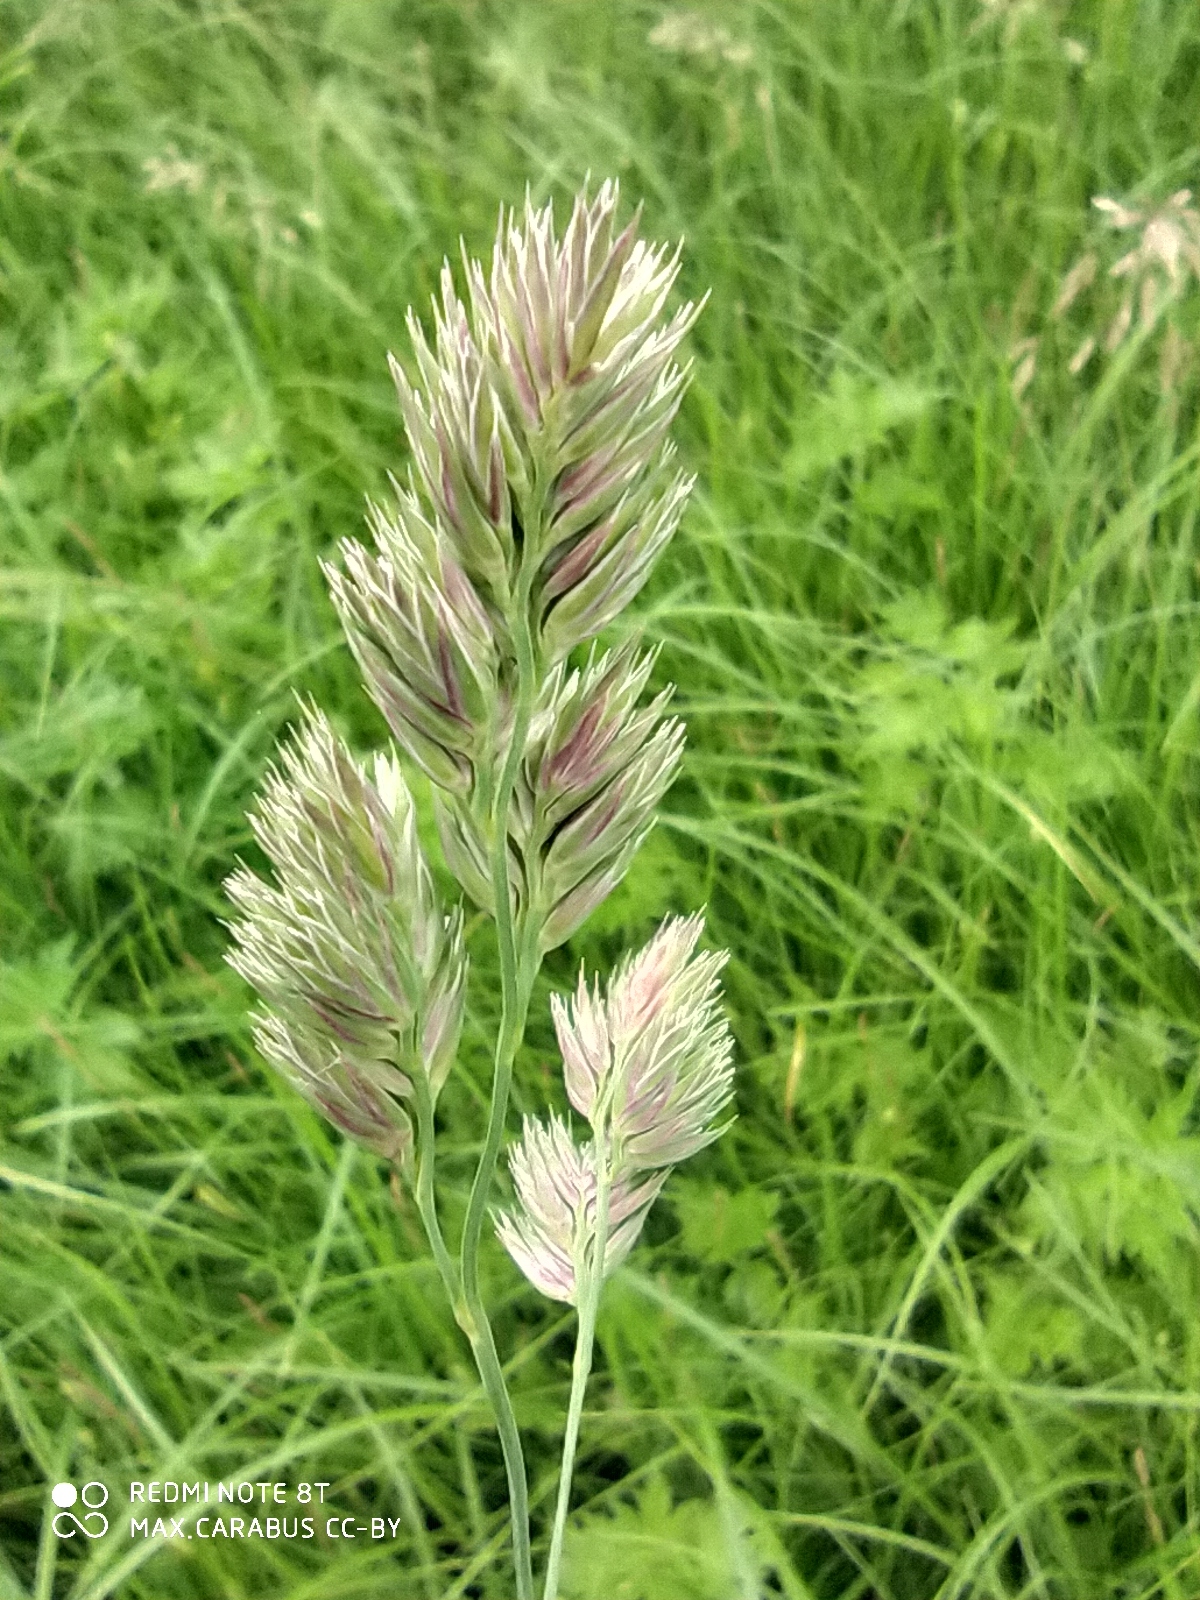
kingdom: Plantae
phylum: Tracheophyta
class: Liliopsida
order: Poales
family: Poaceae
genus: Dactylis
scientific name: Dactylis glomerata
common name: Orchardgrass
